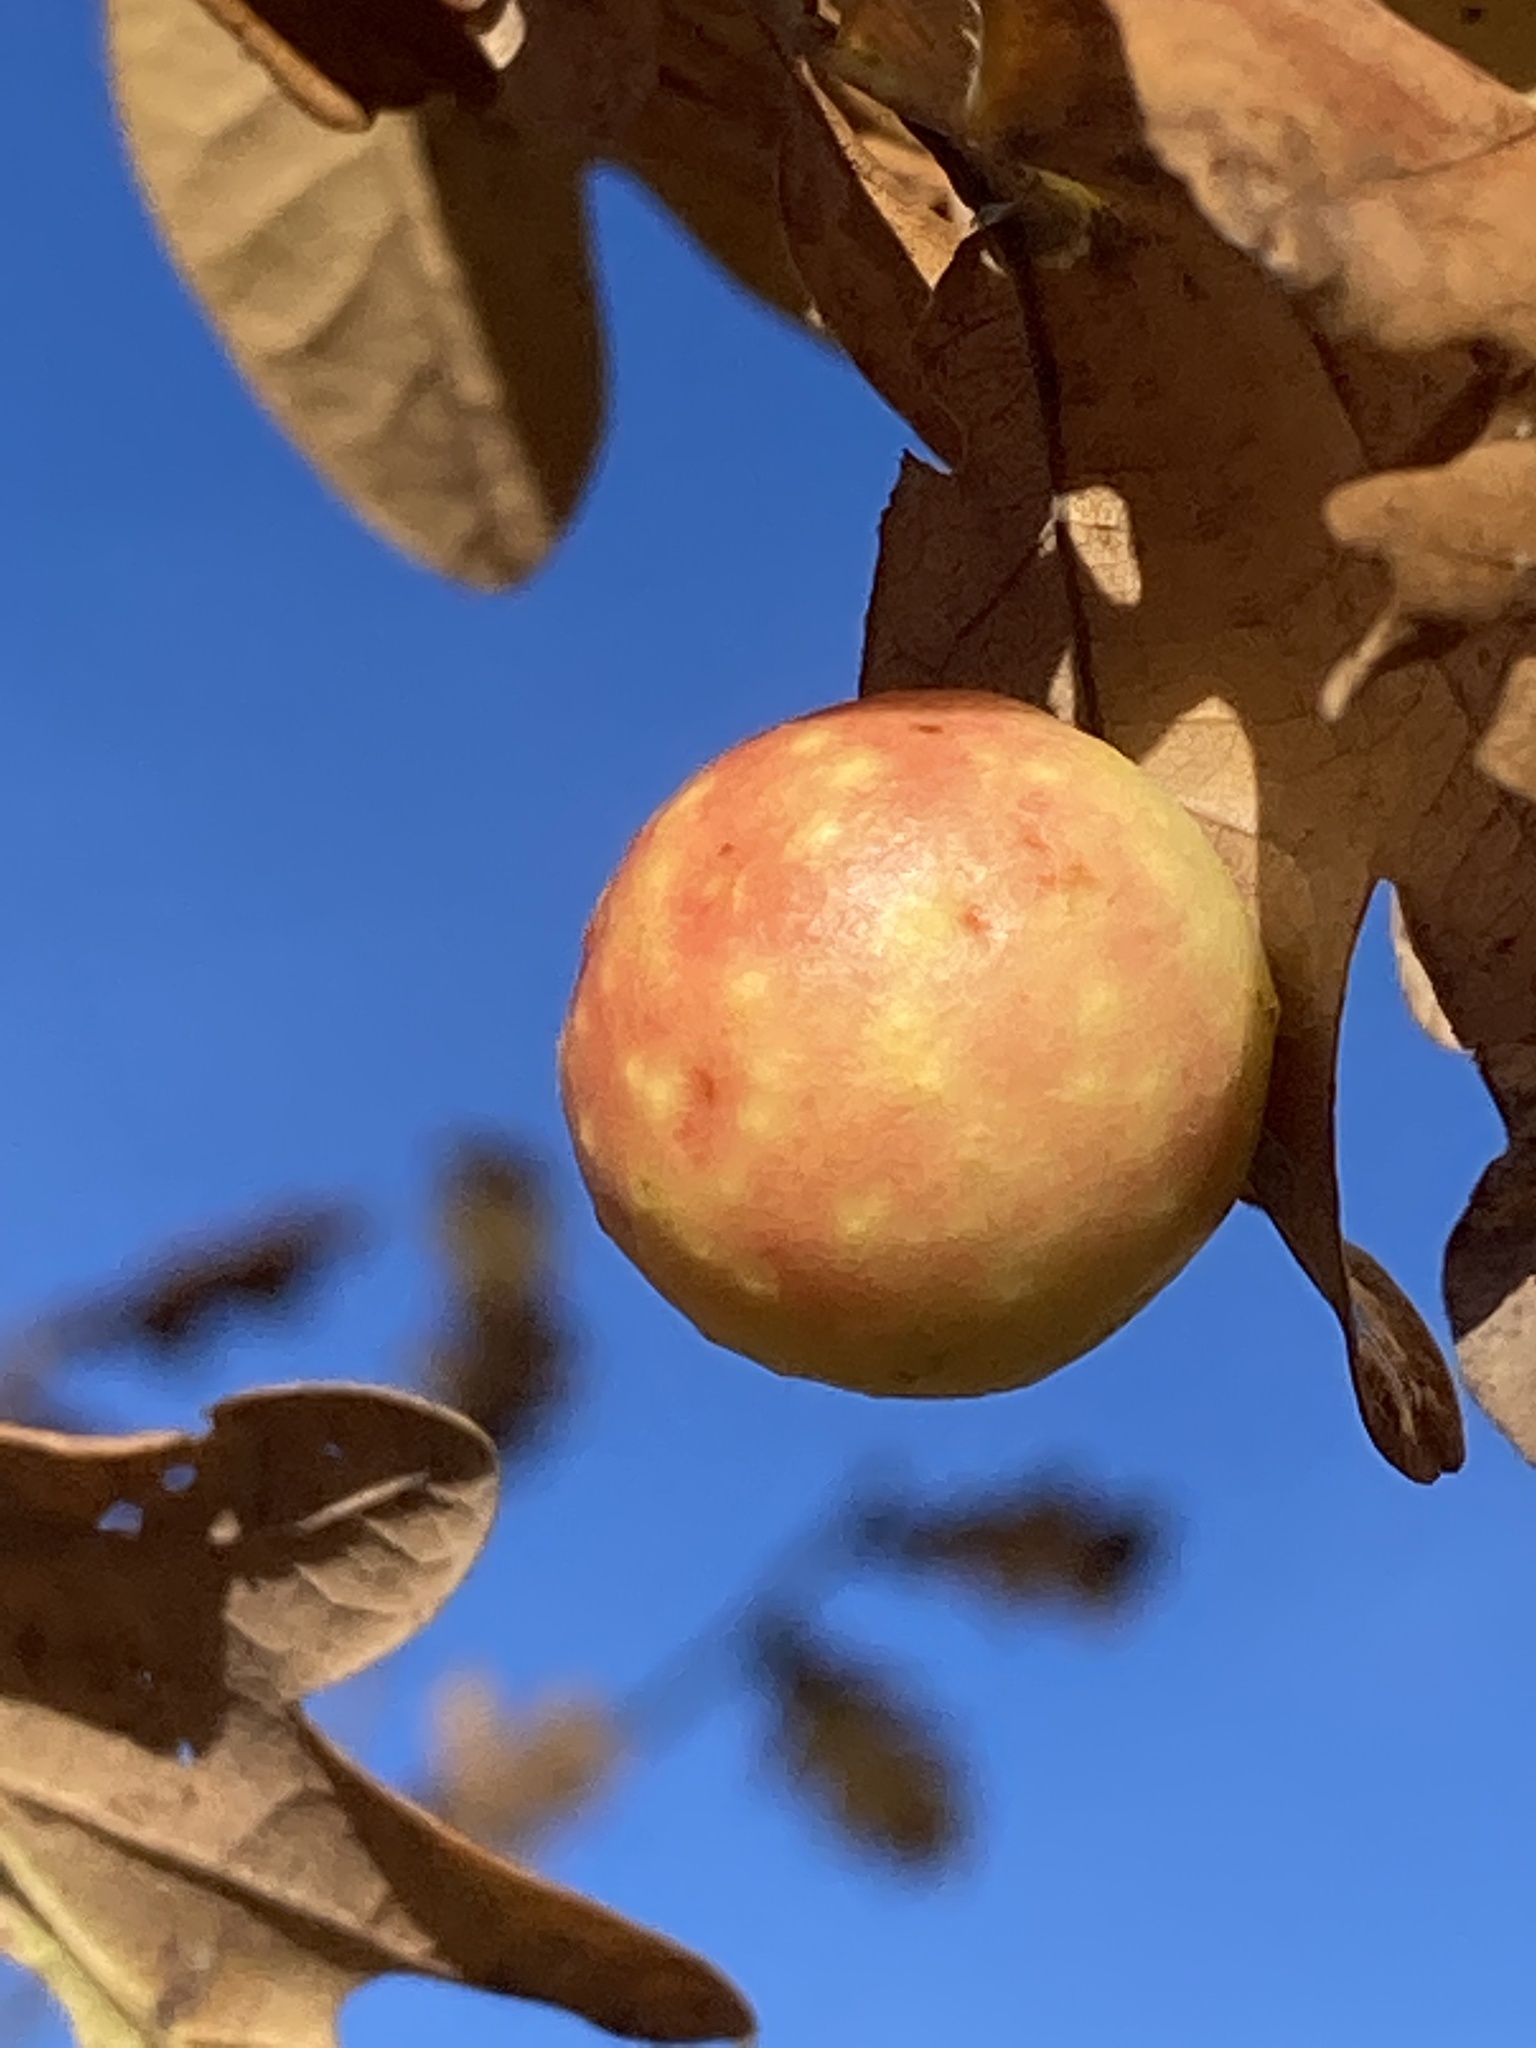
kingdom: Animalia
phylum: Arthropoda
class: Insecta
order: Hymenoptera
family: Cynipidae
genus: Cynips
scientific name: Cynips quercusfolii
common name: Cherry gall
